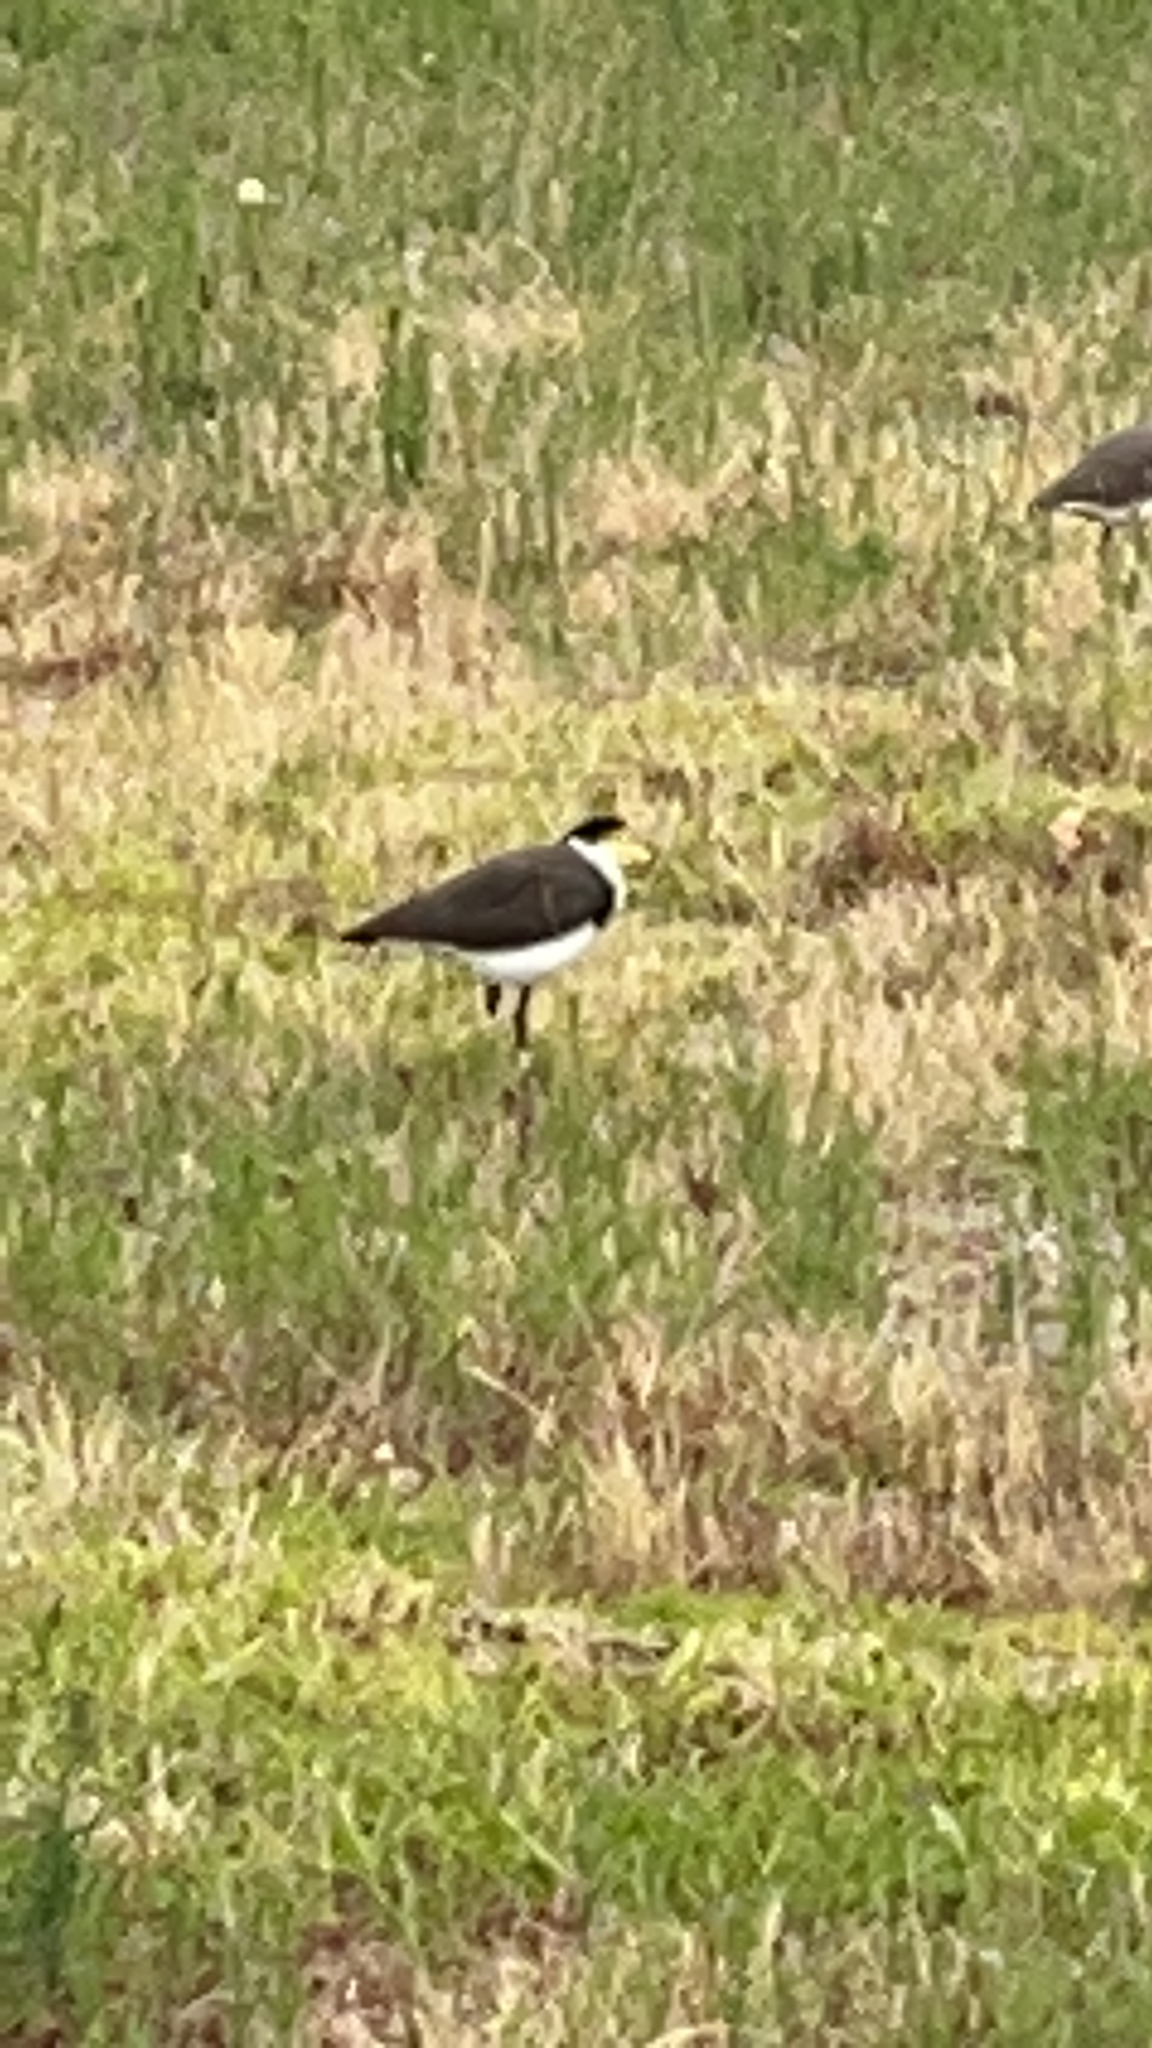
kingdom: Animalia
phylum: Chordata
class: Aves
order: Charadriiformes
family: Charadriidae
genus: Vanellus
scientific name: Vanellus miles
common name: Masked lapwing
